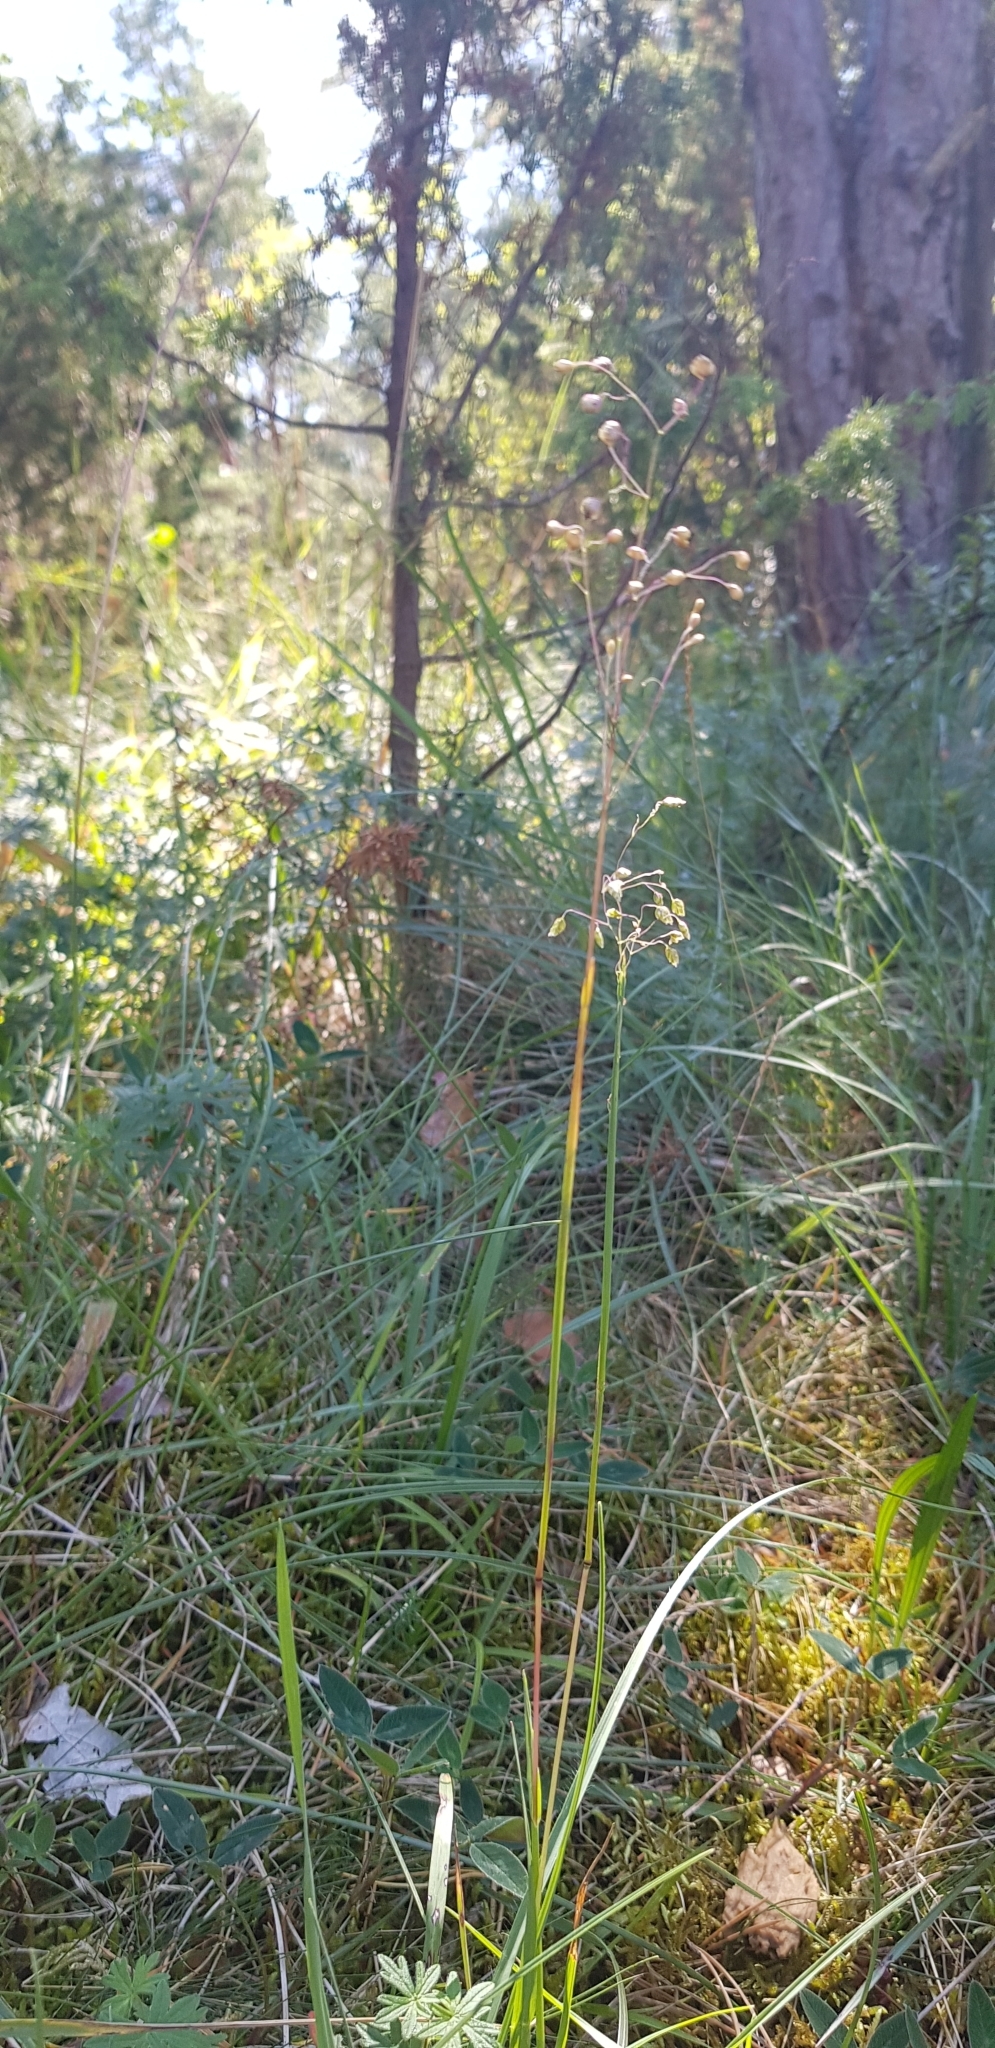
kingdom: Plantae
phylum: Tracheophyta
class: Liliopsida
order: Poales
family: Poaceae
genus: Briza
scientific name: Briza media
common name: Quaking grass
